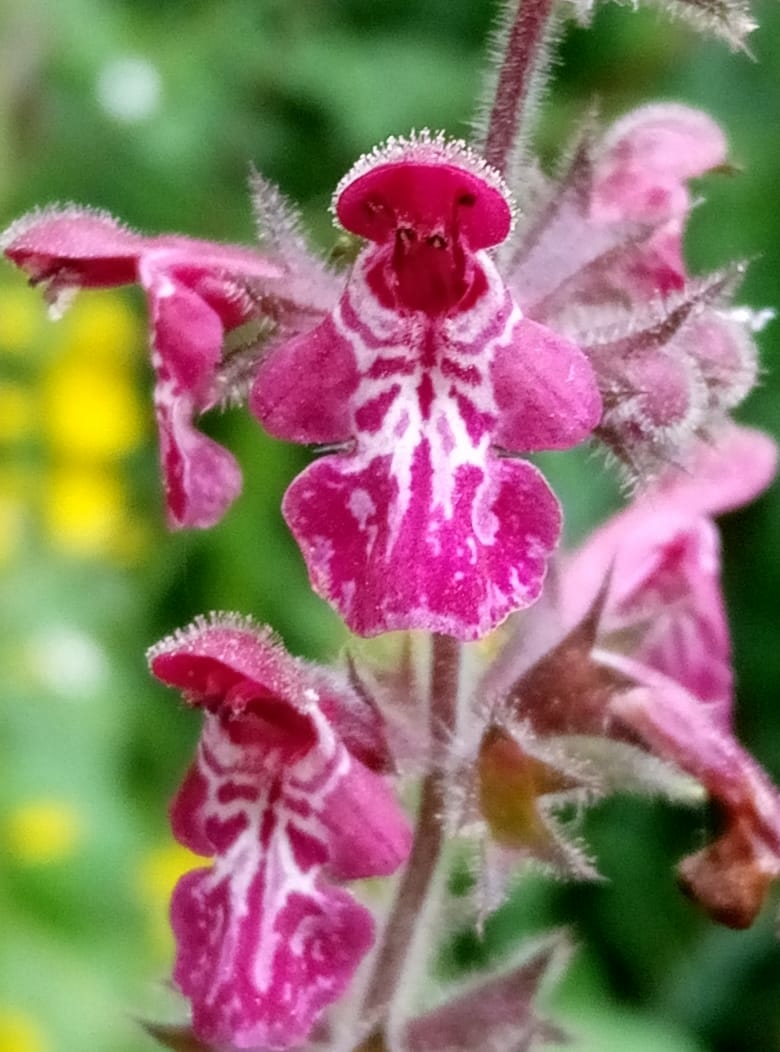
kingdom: Plantae
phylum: Tracheophyta
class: Magnoliopsida
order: Lamiales
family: Lamiaceae
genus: Stachys
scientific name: Stachys sylvatica
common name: Hedge woundwort
